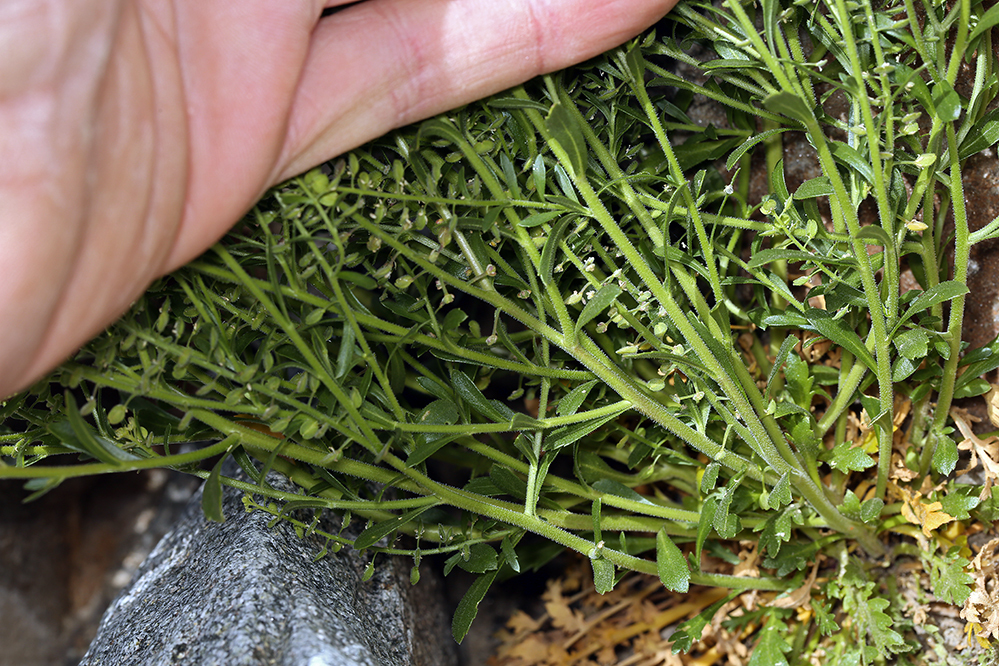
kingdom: Plantae
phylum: Tracheophyta
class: Magnoliopsida
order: Brassicales
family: Brassicaceae
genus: Lepidium
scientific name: Lepidium lasiocarpum
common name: Hairy-pod pepperwort
